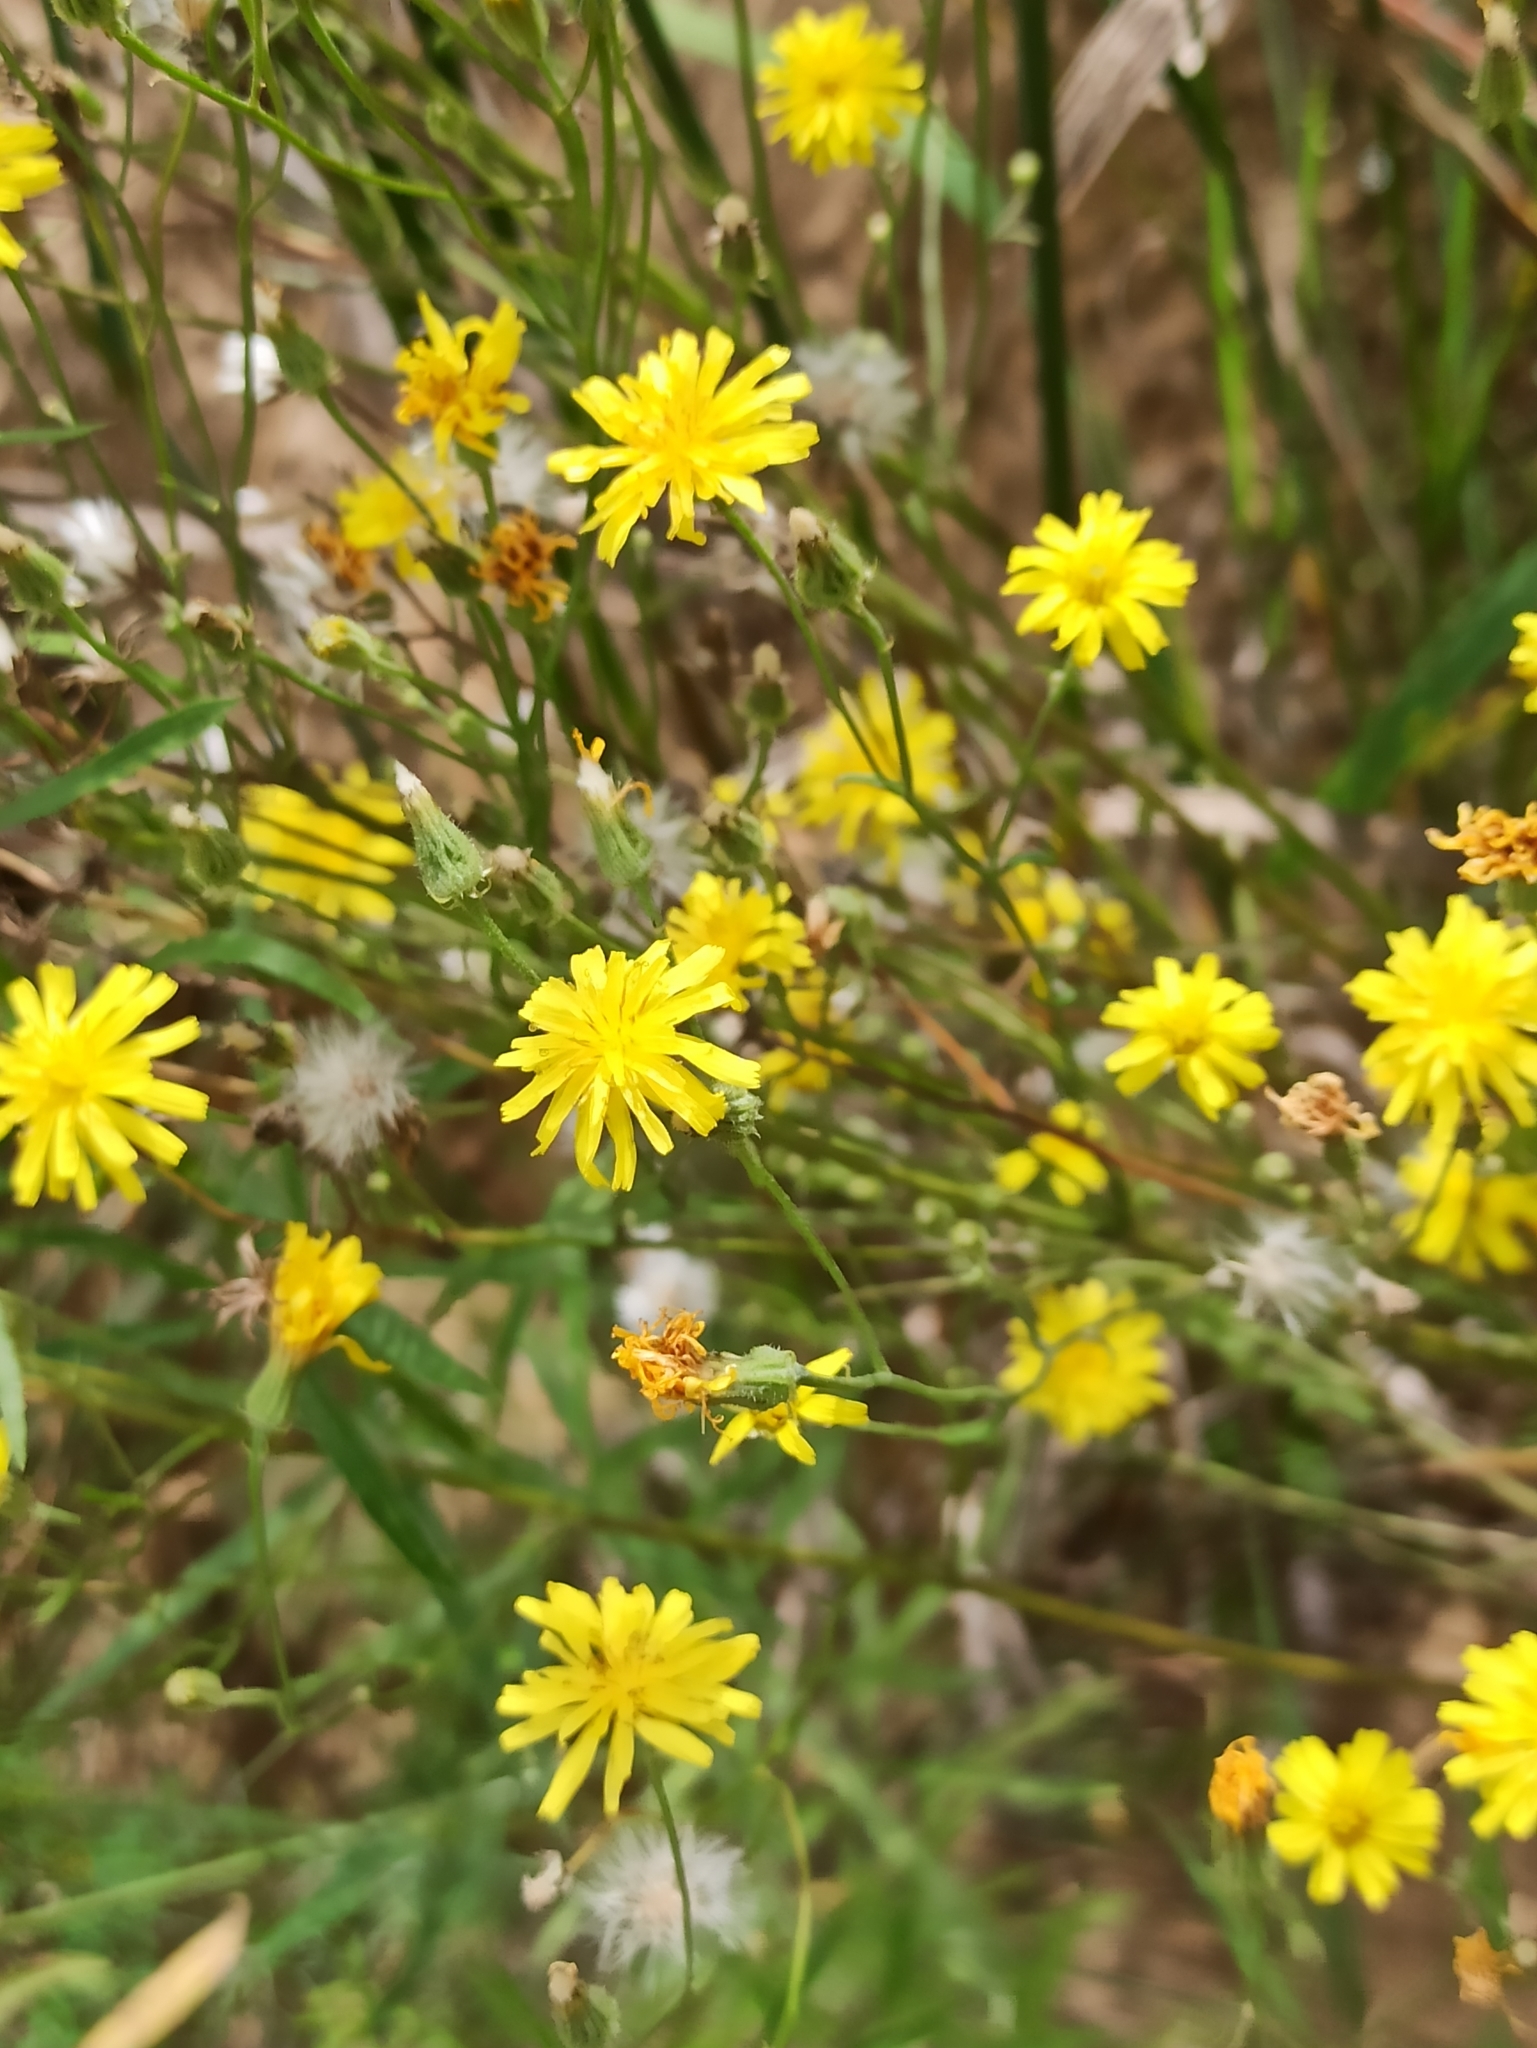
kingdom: Plantae
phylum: Tracheophyta
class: Magnoliopsida
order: Asterales
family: Asteraceae
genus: Crepis
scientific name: Crepis tectorum
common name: Narrow-leaved hawk's-beard
